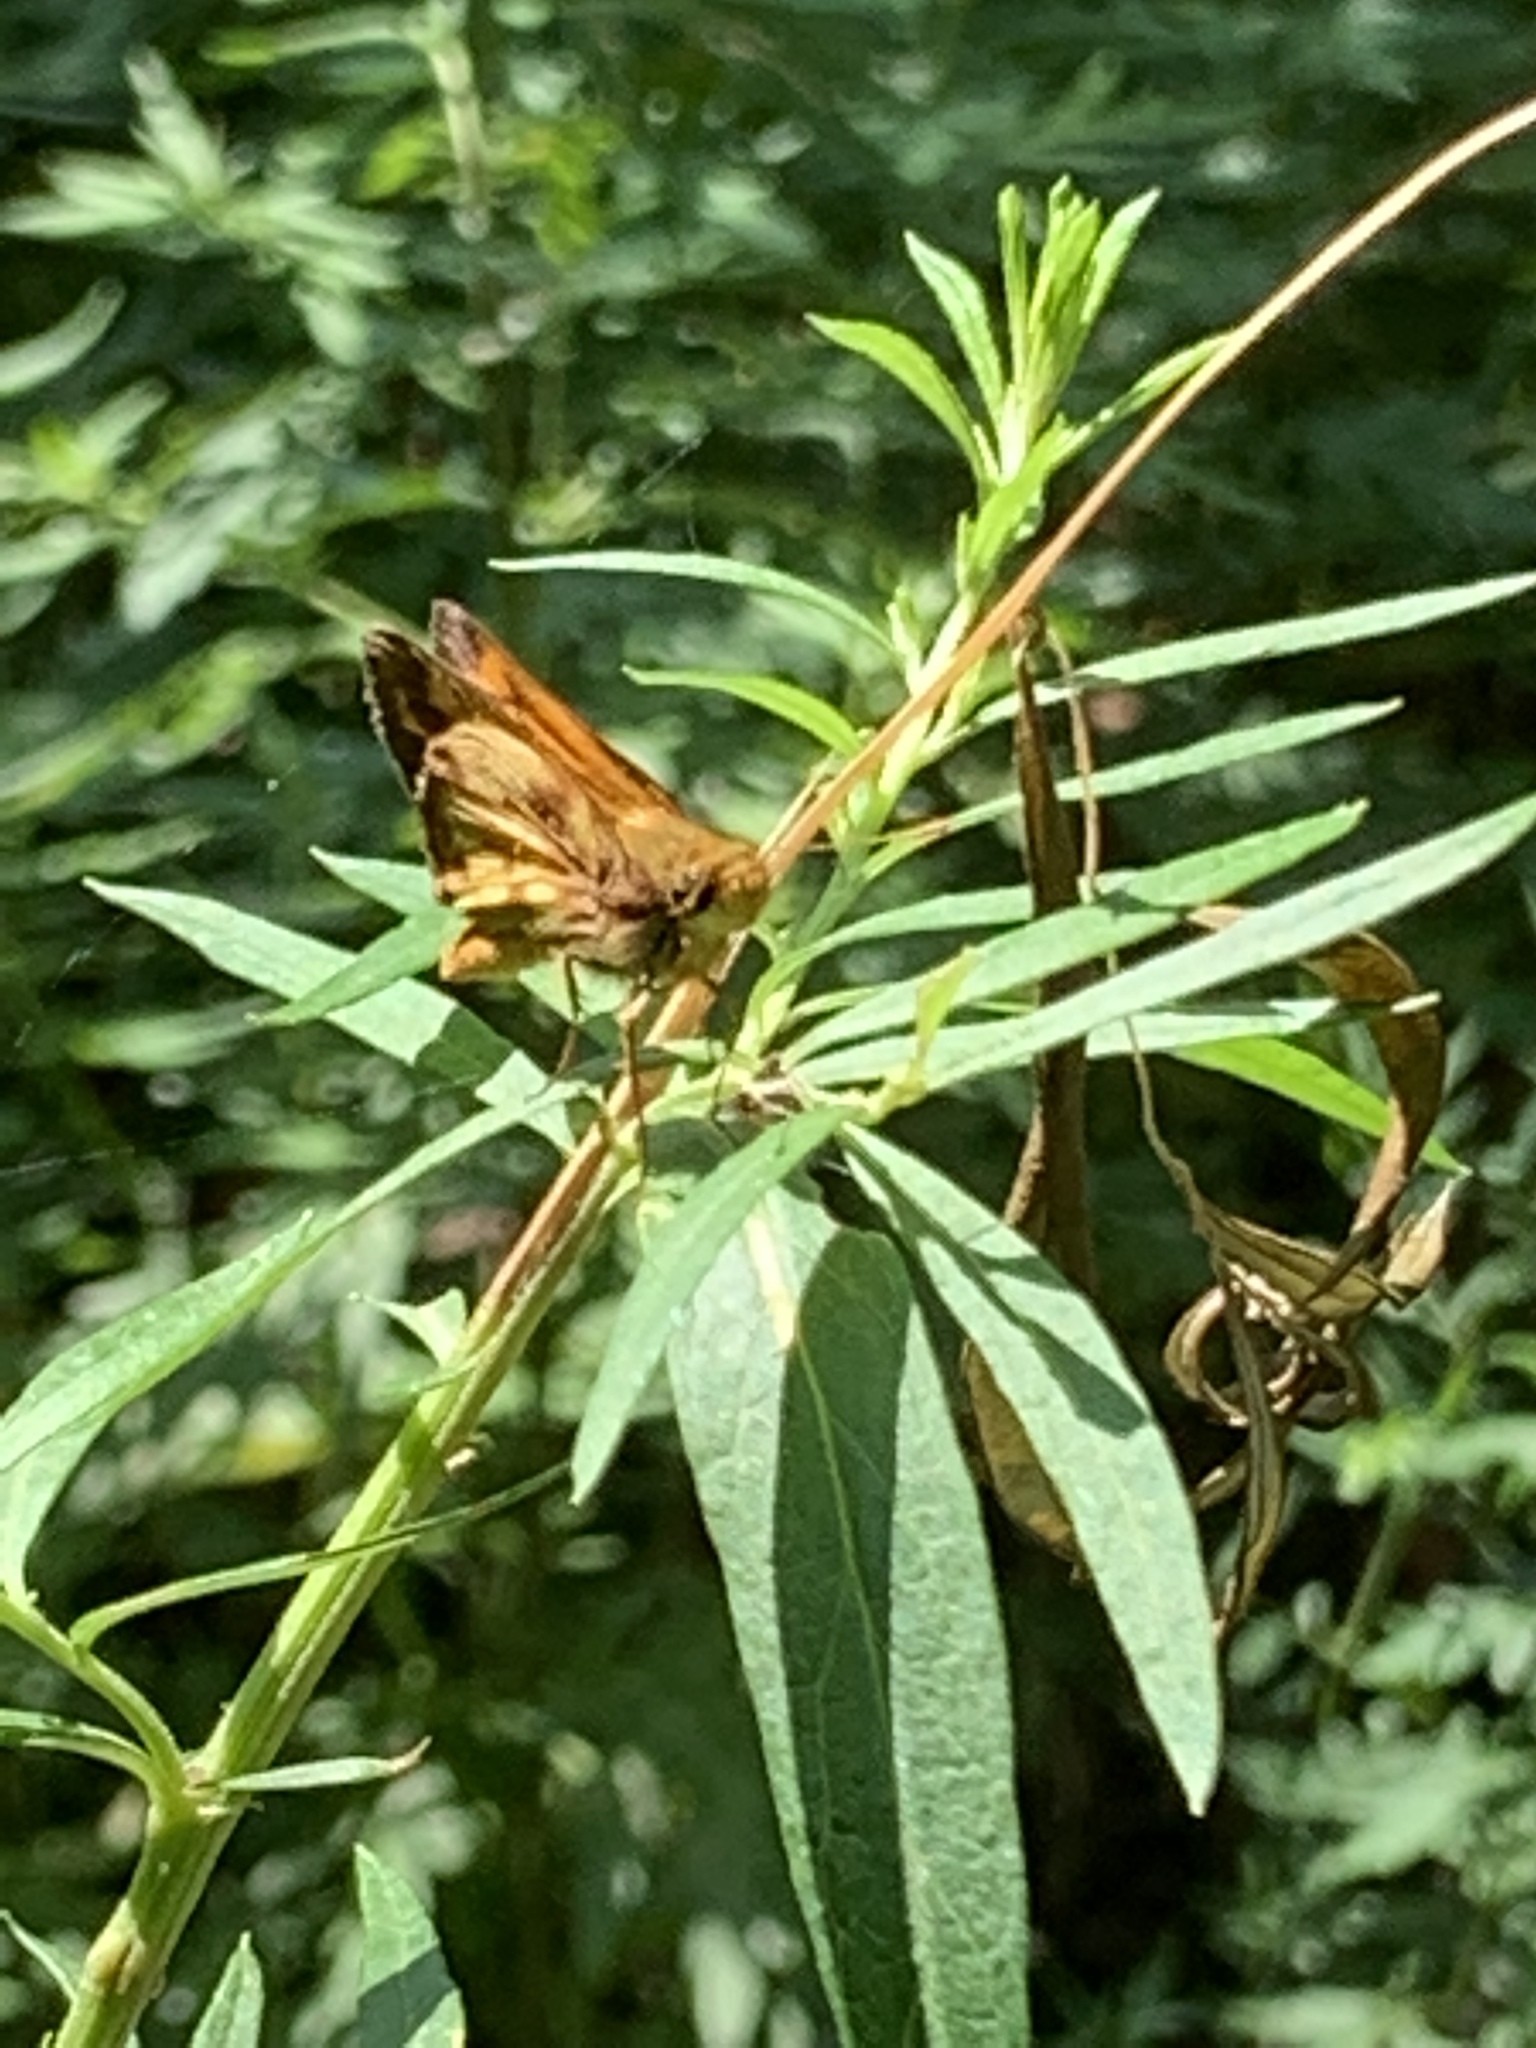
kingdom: Animalia
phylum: Arthropoda
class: Insecta
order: Lepidoptera
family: Hesperiidae
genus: Lon
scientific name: Lon zabulon
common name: Zabulon skipper
